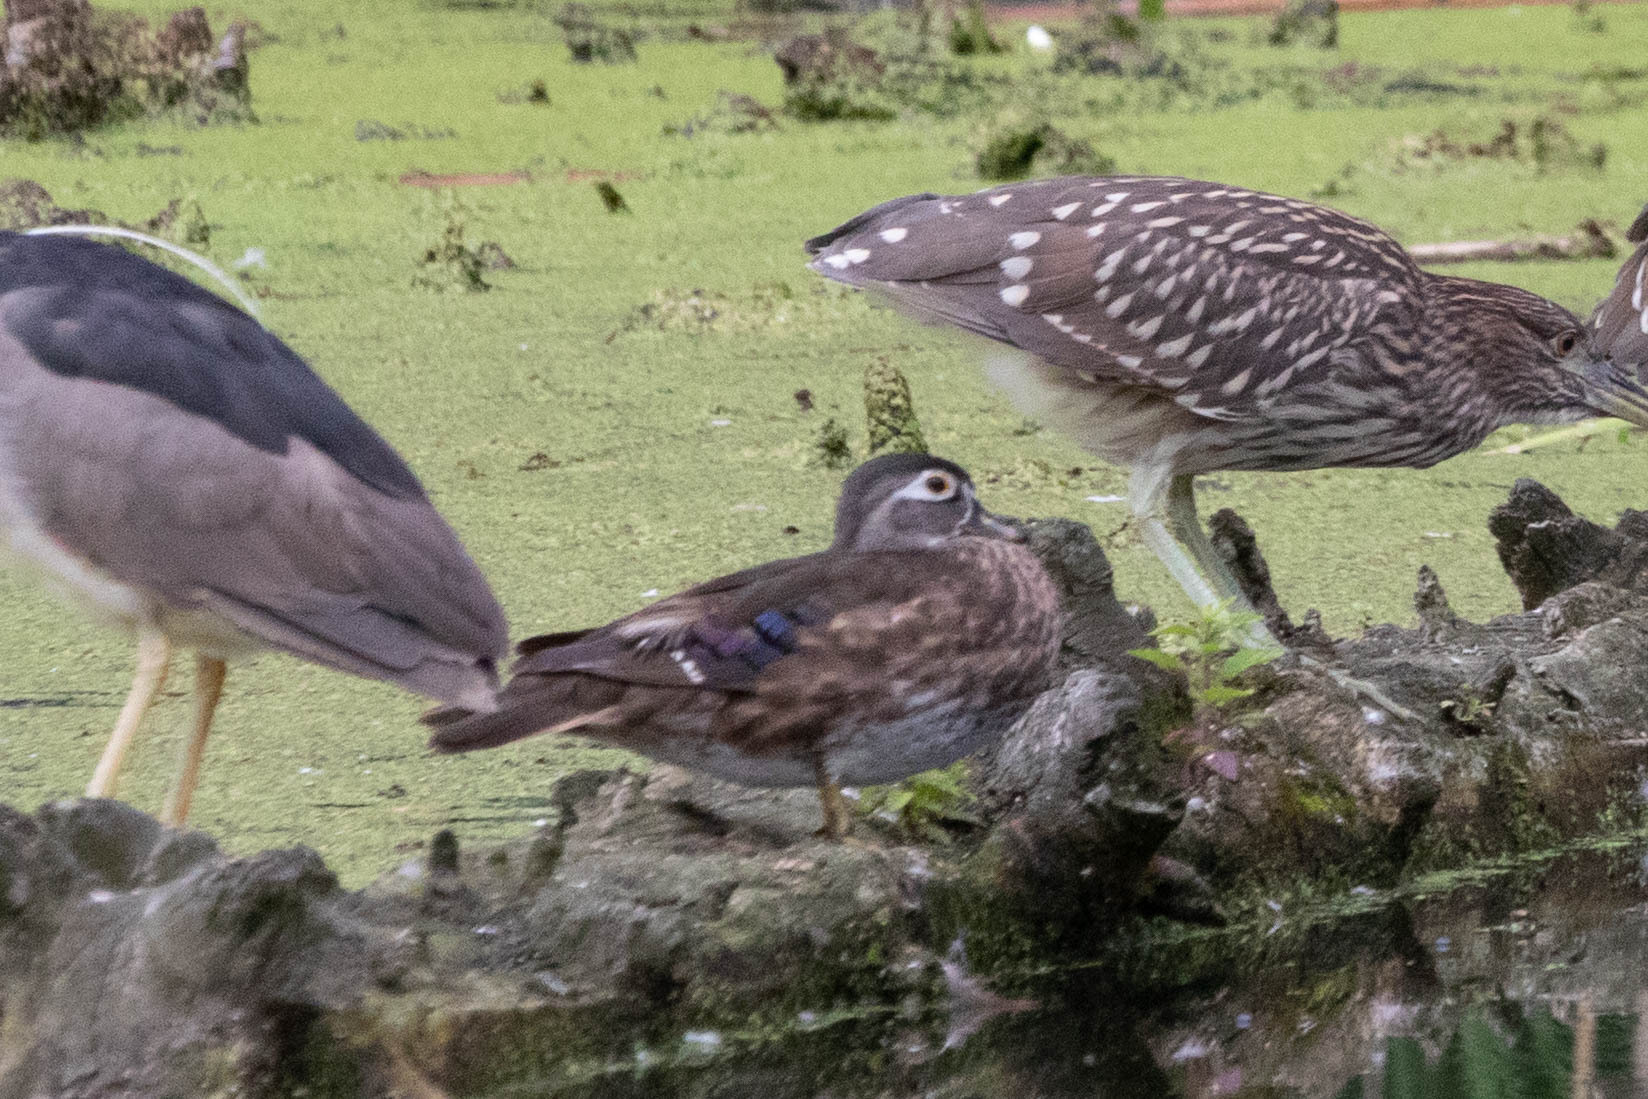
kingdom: Animalia
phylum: Chordata
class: Aves
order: Anseriformes
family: Anatidae
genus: Aix
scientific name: Aix sponsa
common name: Wood duck
